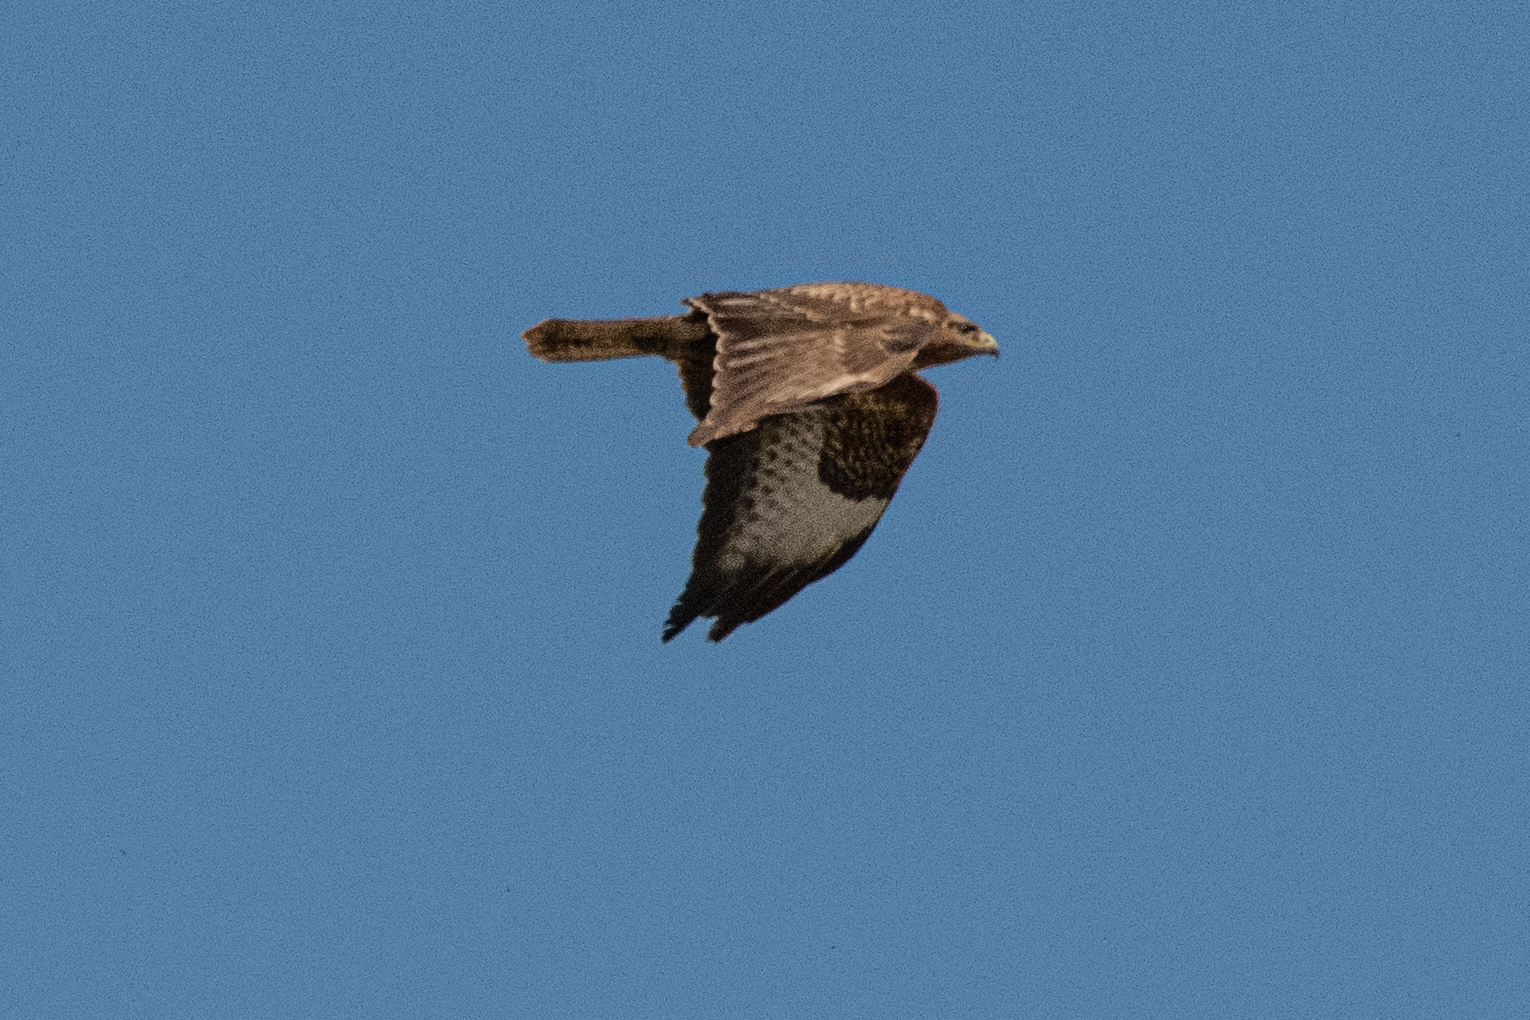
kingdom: Animalia
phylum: Chordata
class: Aves
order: Accipitriformes
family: Accipitridae
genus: Buteo
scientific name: Buteo buteo
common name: Common buzzard
